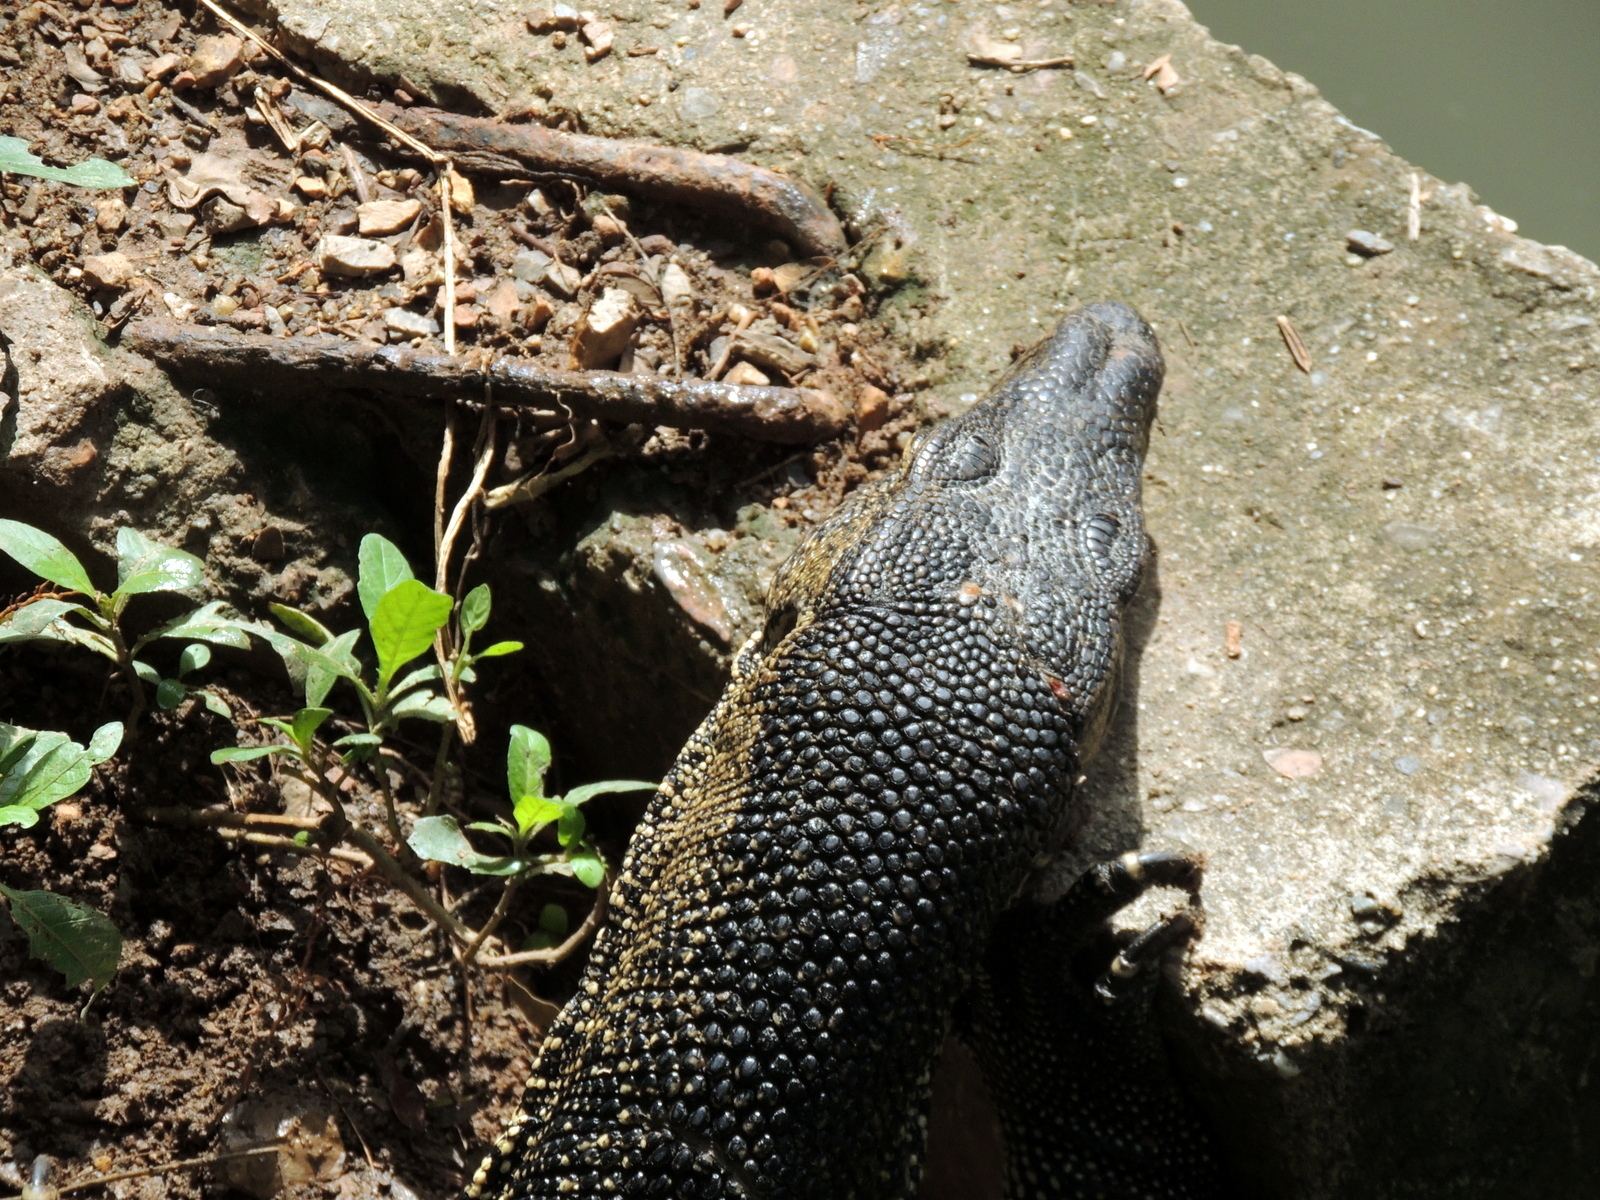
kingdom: Animalia
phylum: Chordata
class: Squamata
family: Varanidae
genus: Varanus
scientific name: Varanus salvator
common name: Common water monitor
